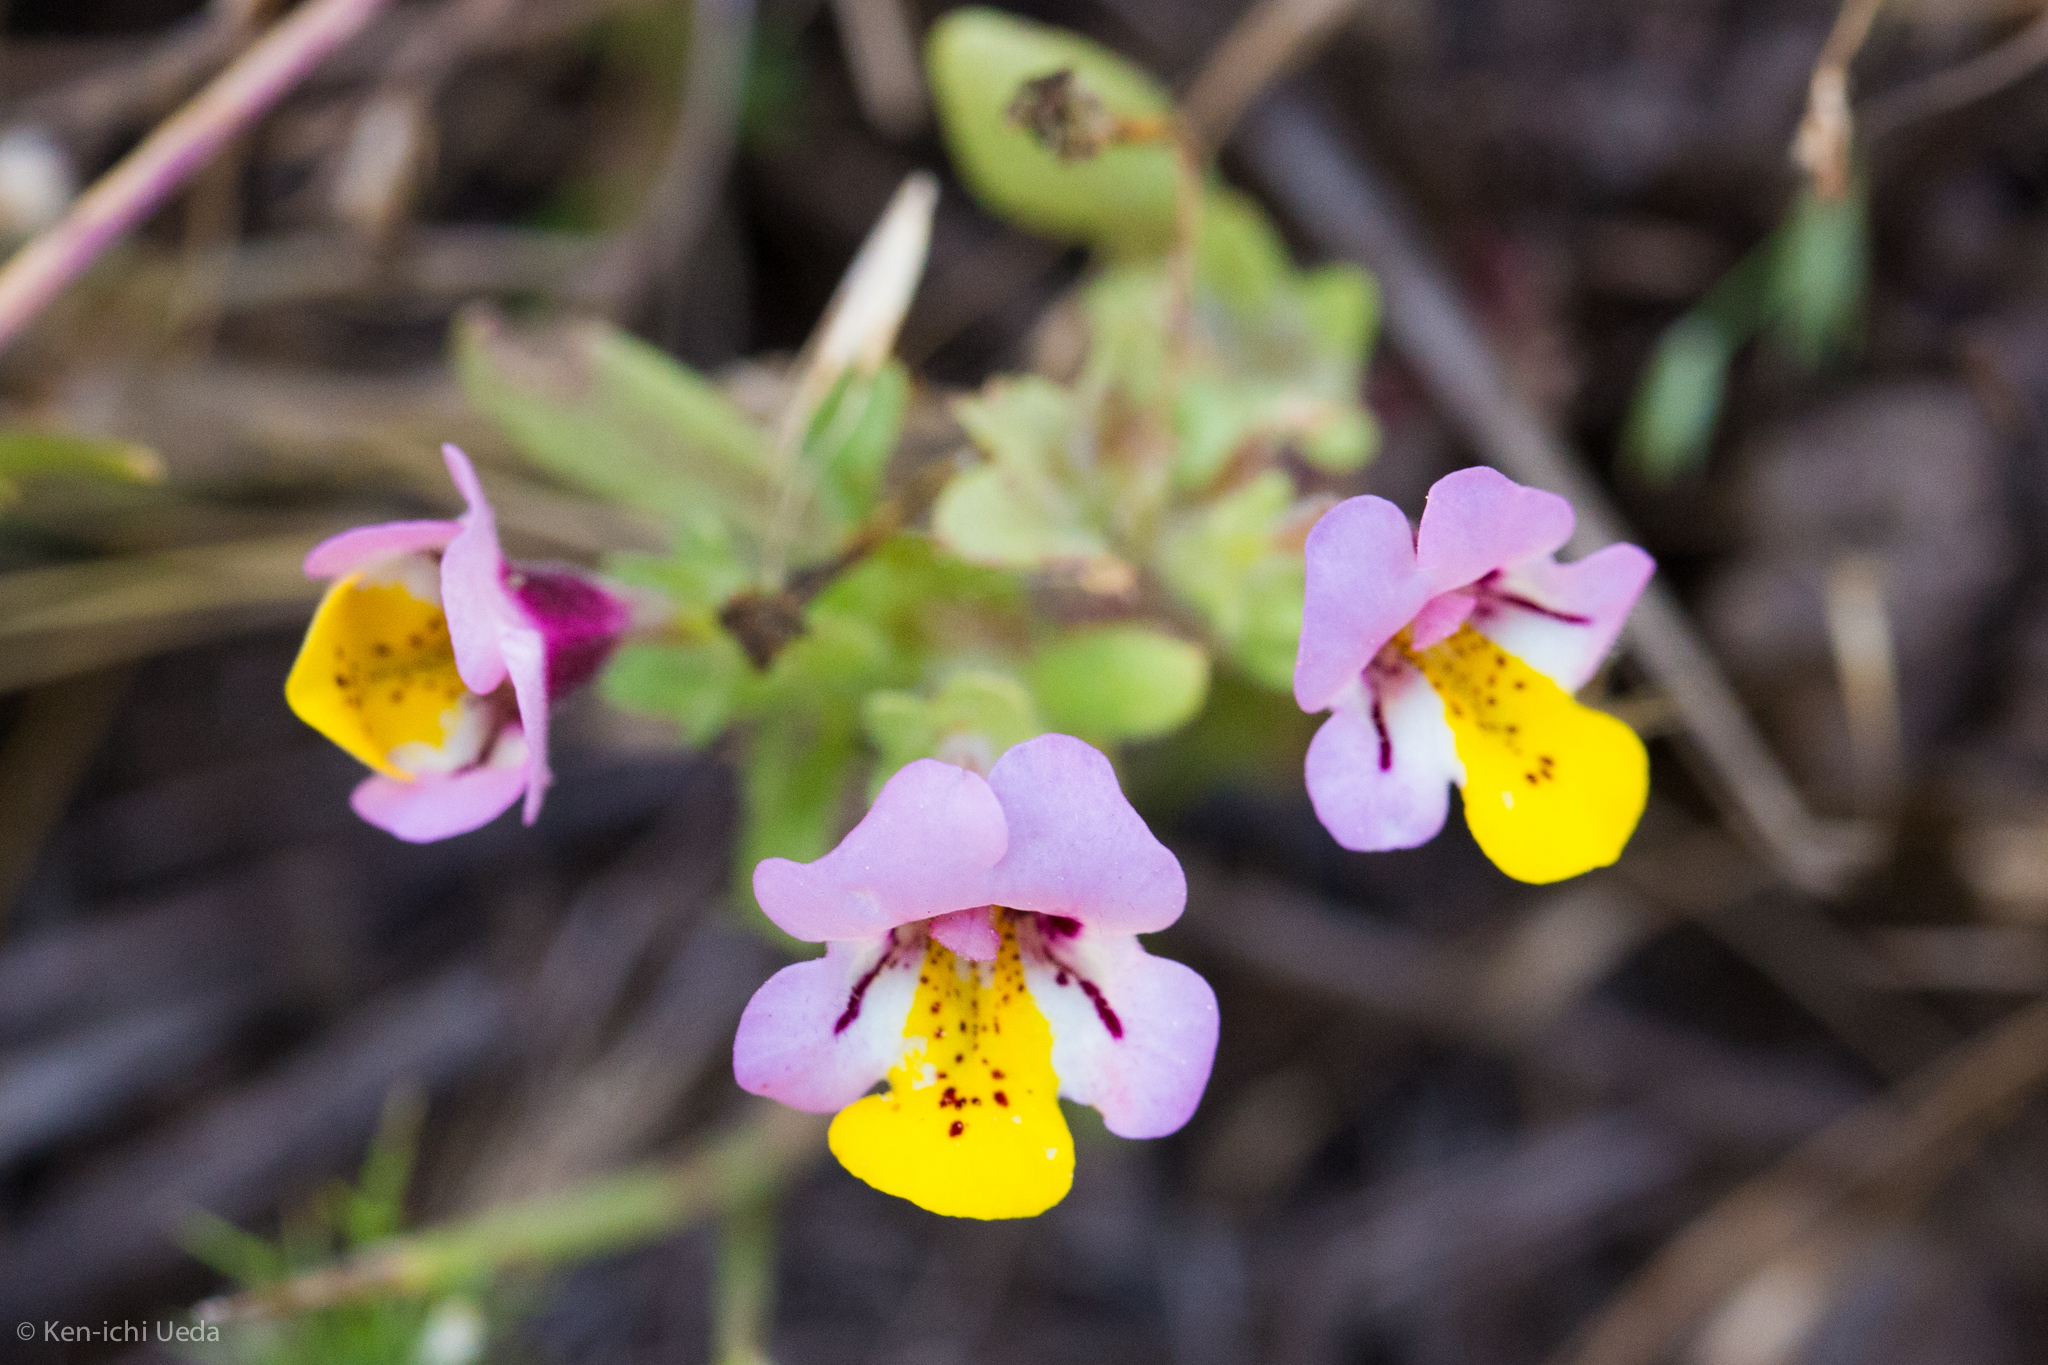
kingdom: Plantae
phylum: Tracheophyta
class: Magnoliopsida
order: Lamiales
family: Phrymaceae
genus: Diplacus
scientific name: Diplacus pulchellus
